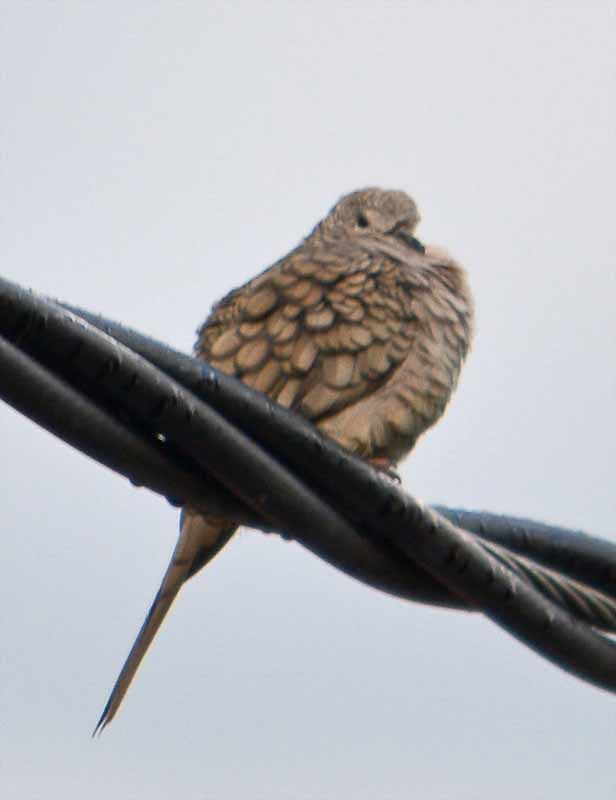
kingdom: Animalia
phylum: Chordata
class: Aves
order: Columbiformes
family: Columbidae
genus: Columbina
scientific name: Columbina inca
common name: Inca dove
